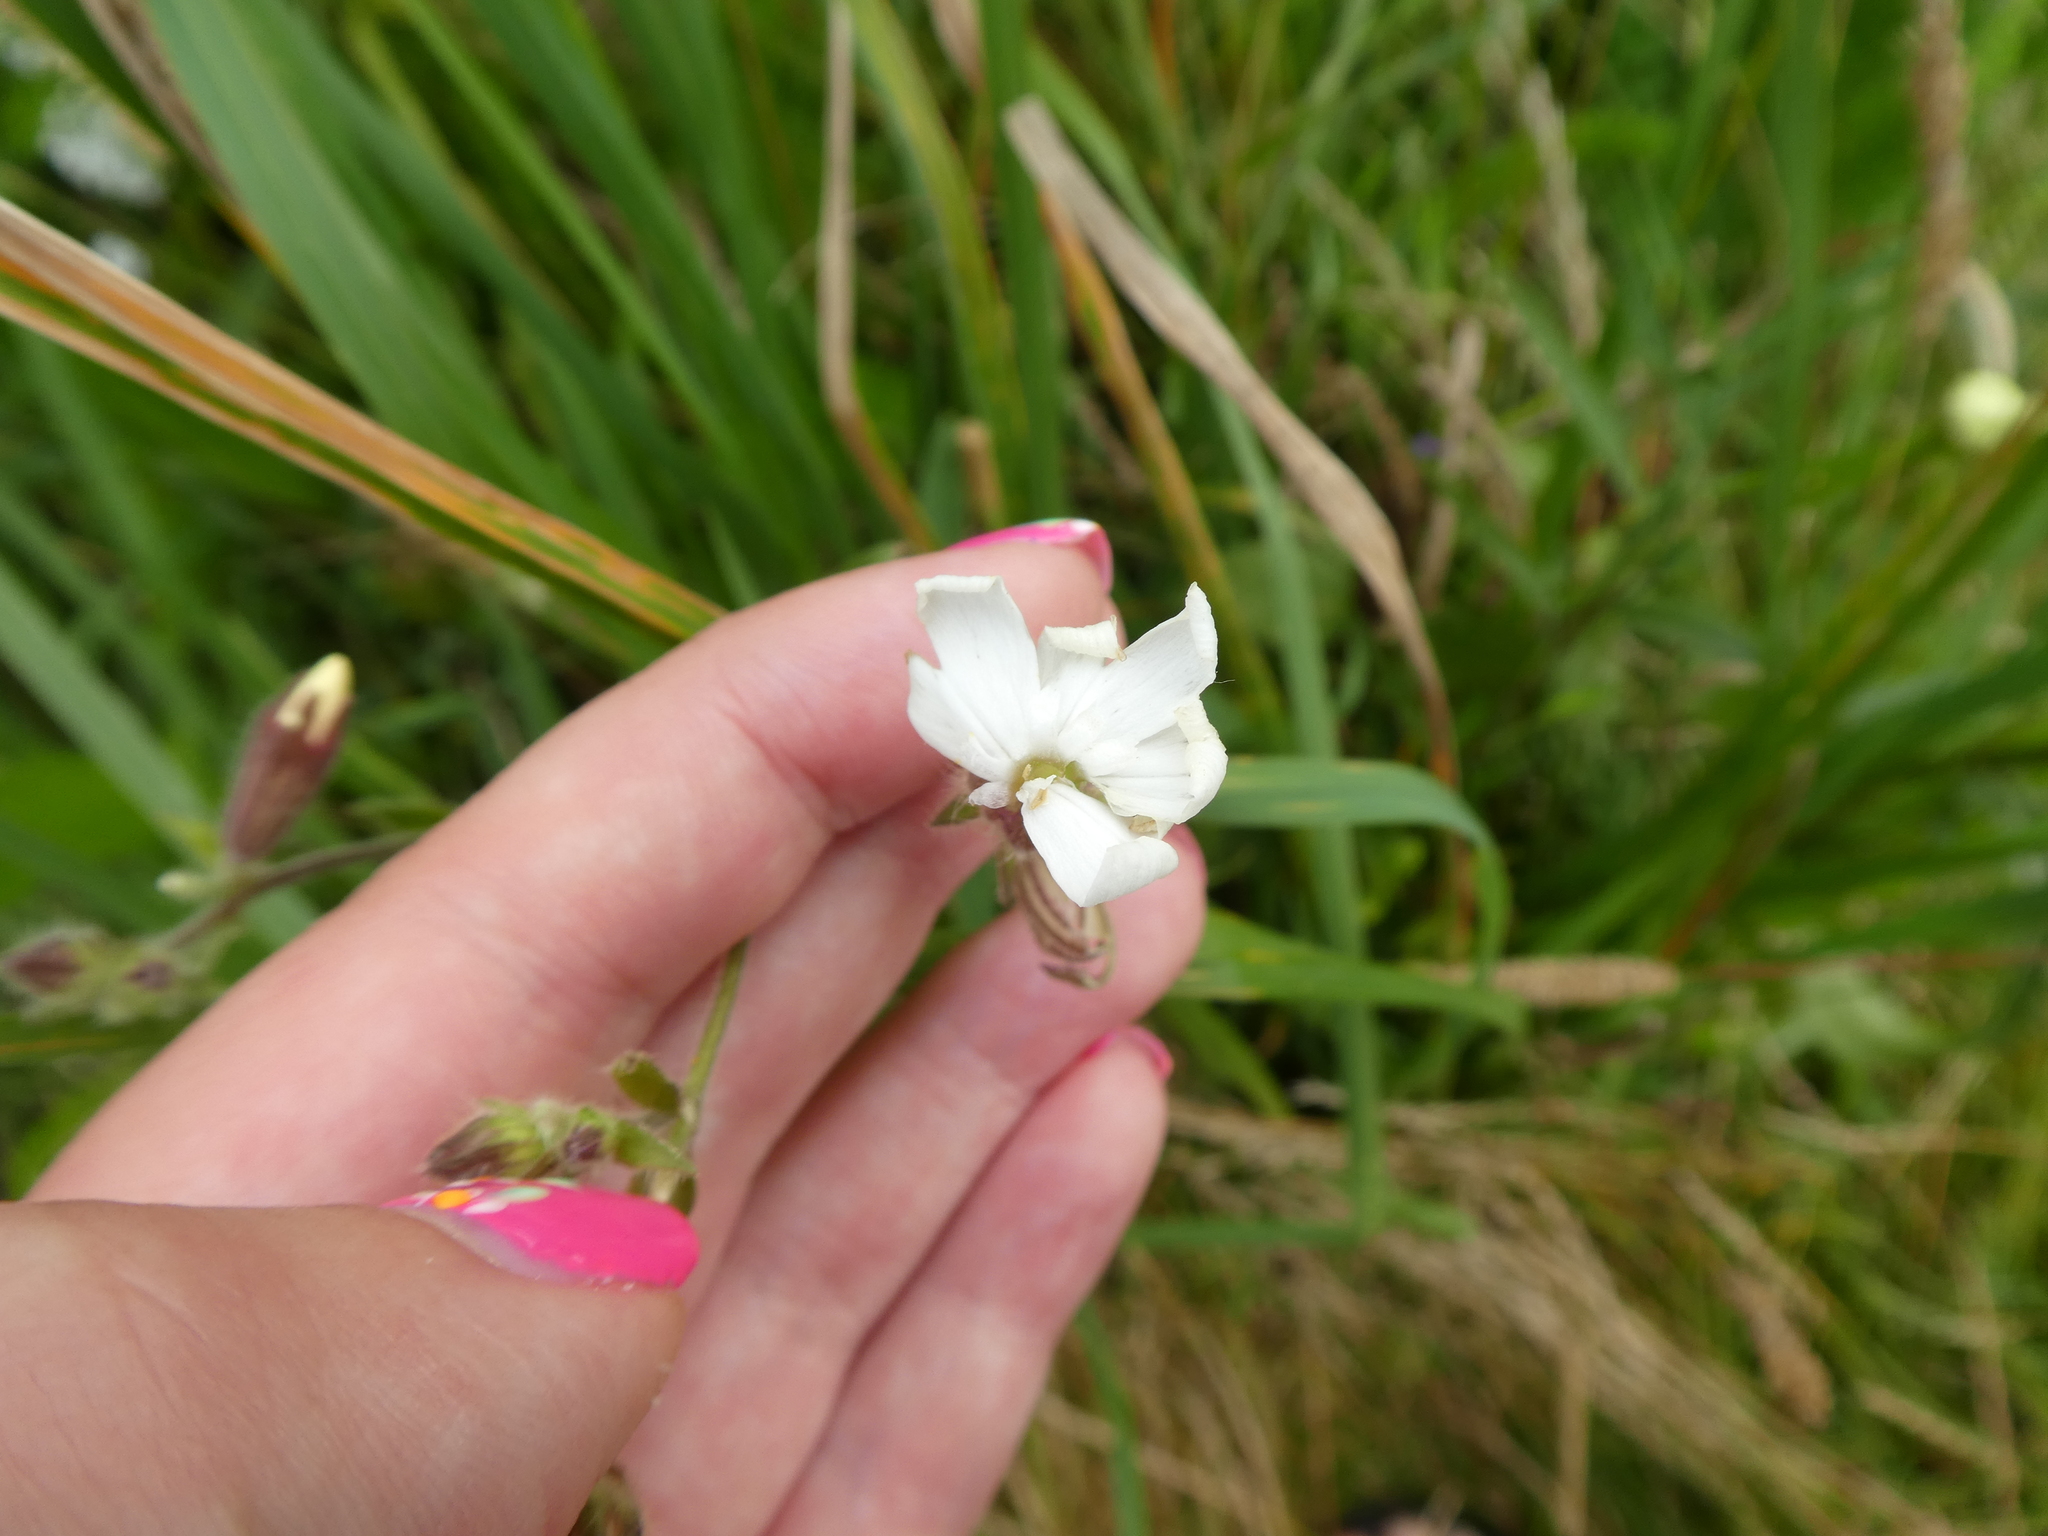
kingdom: Plantae
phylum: Tracheophyta
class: Magnoliopsida
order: Caryophyllales
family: Caryophyllaceae
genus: Silene
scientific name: Silene latifolia
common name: White campion
